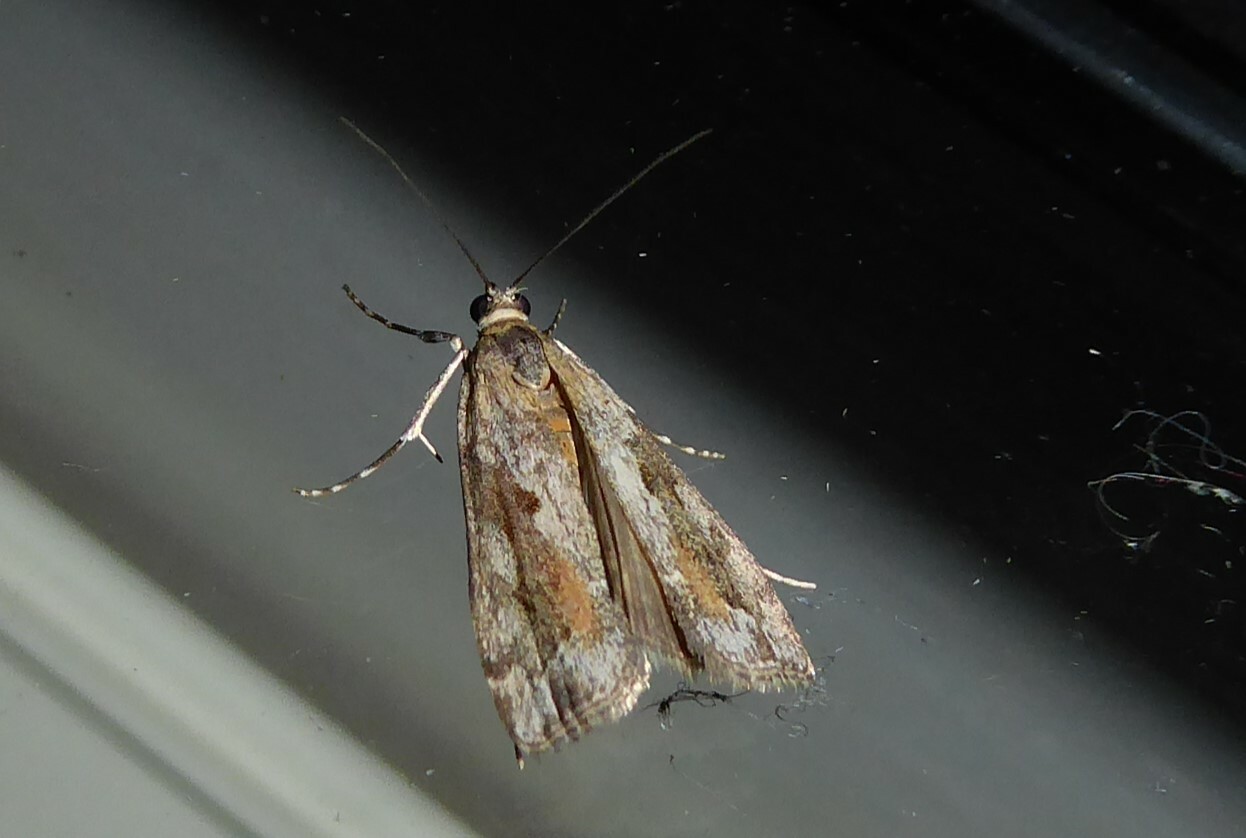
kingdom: Animalia
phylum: Arthropoda
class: Insecta
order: Lepidoptera
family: Crambidae
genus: Eudonia
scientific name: Eudonia submarginalis
